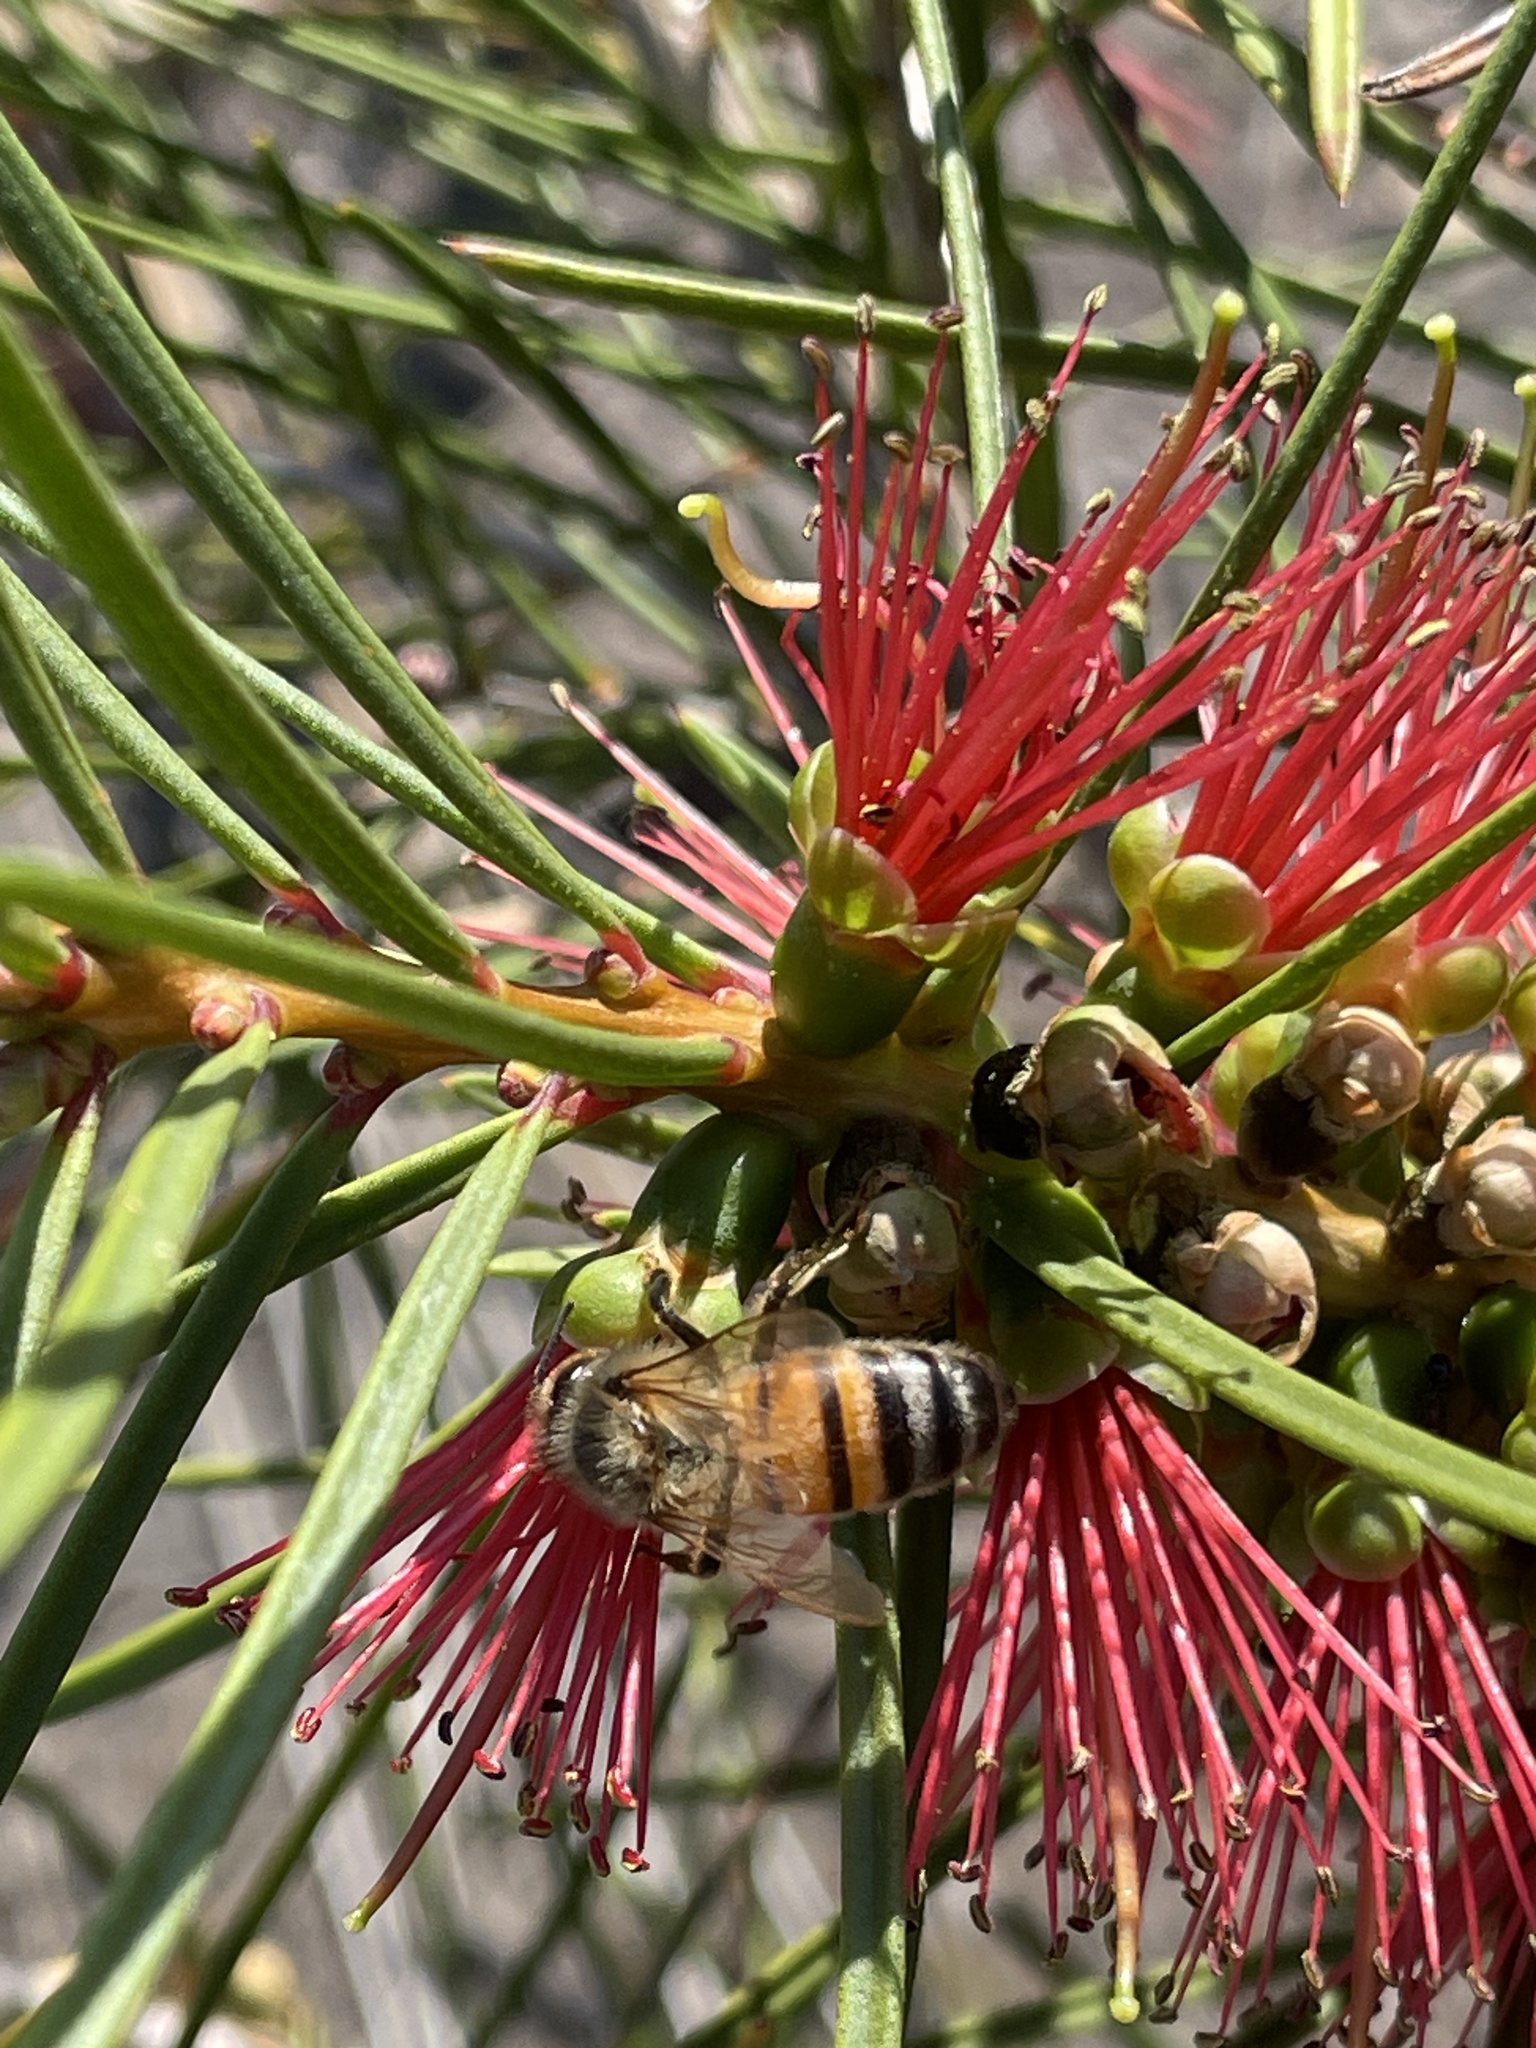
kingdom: Animalia
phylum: Arthropoda
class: Insecta
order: Hymenoptera
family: Apidae
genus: Apis
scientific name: Apis mellifera
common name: Honey bee
